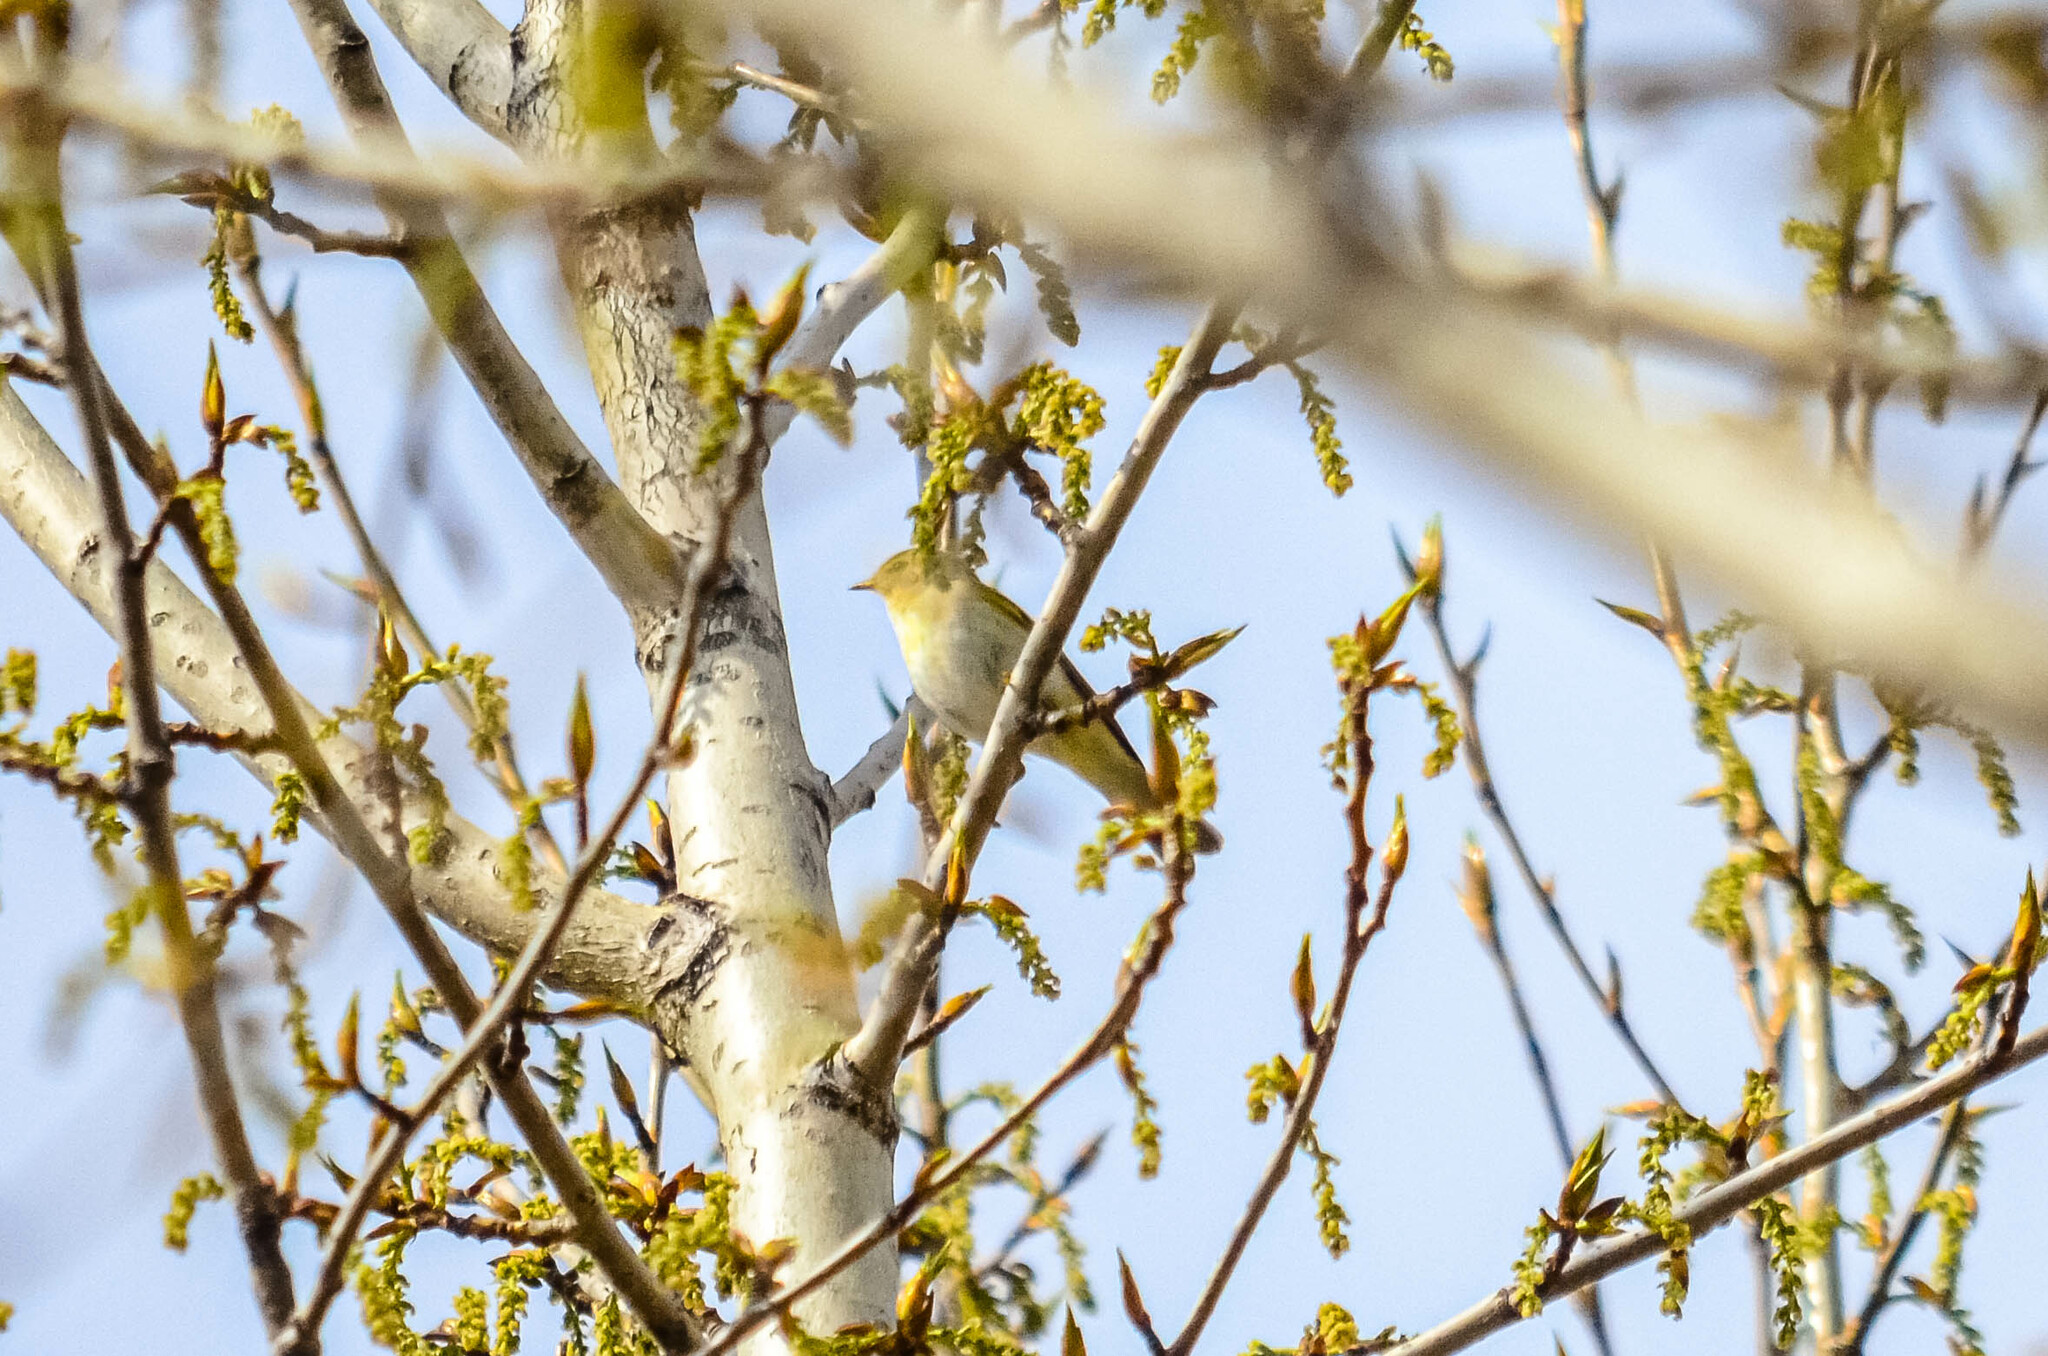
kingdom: Animalia
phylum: Chordata
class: Aves
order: Passeriformes
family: Phylloscopidae
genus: Phylloscopus
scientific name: Phylloscopus collybita
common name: Common chiffchaff
